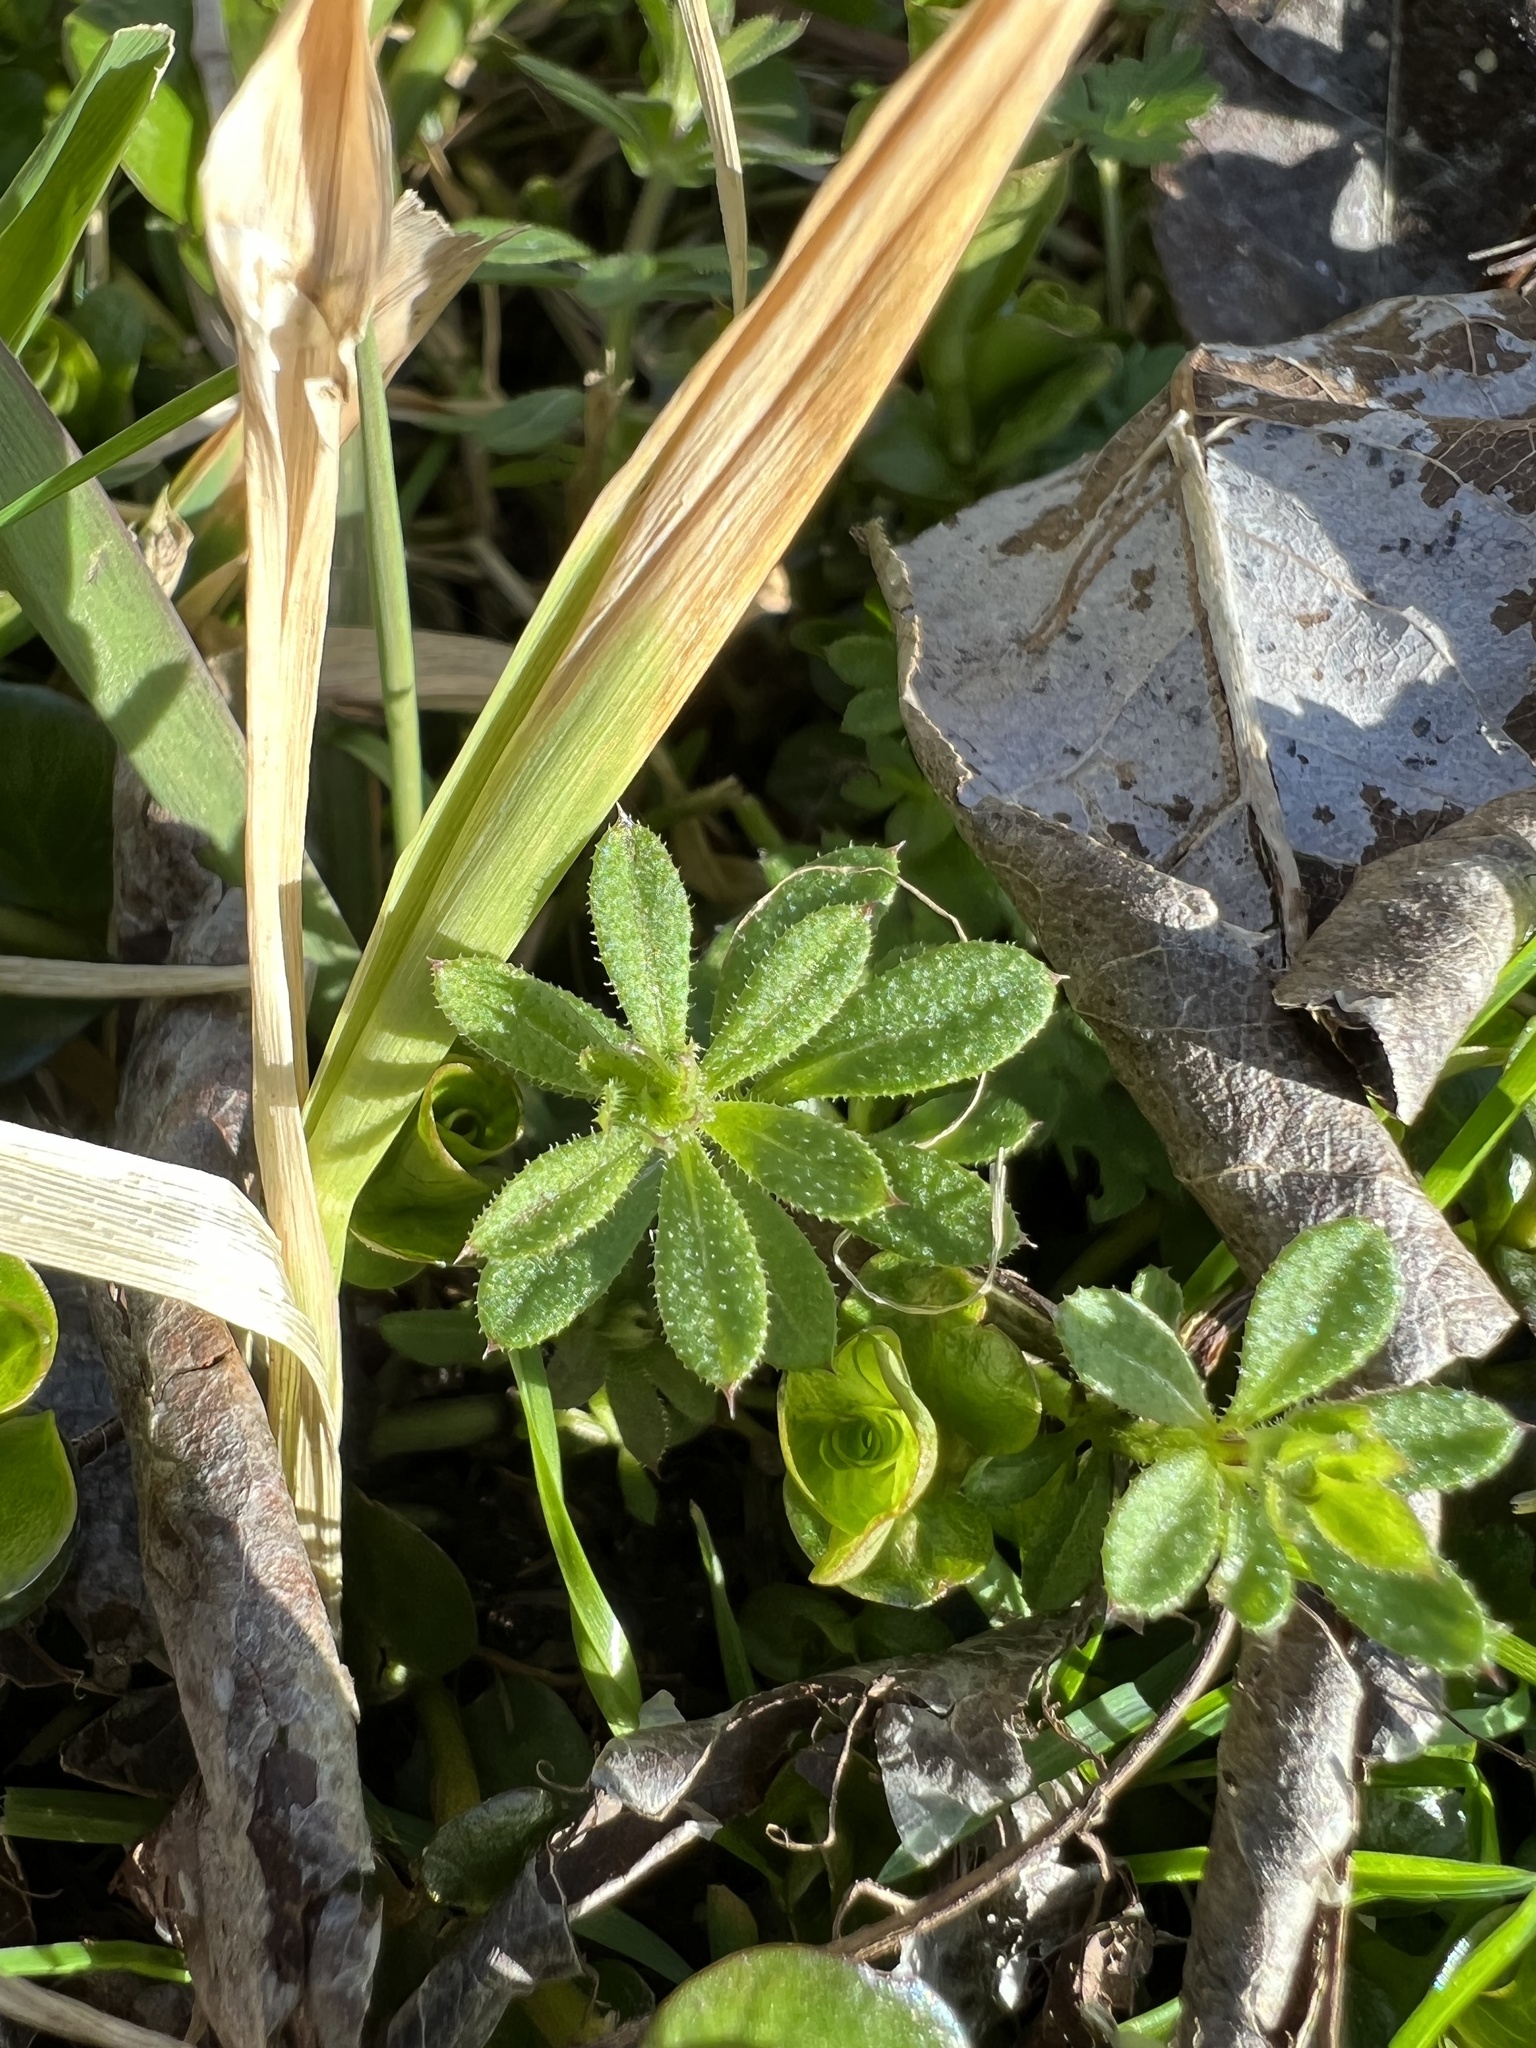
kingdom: Plantae
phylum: Tracheophyta
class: Magnoliopsida
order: Gentianales
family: Rubiaceae
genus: Galium
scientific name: Galium aparine
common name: Cleavers
